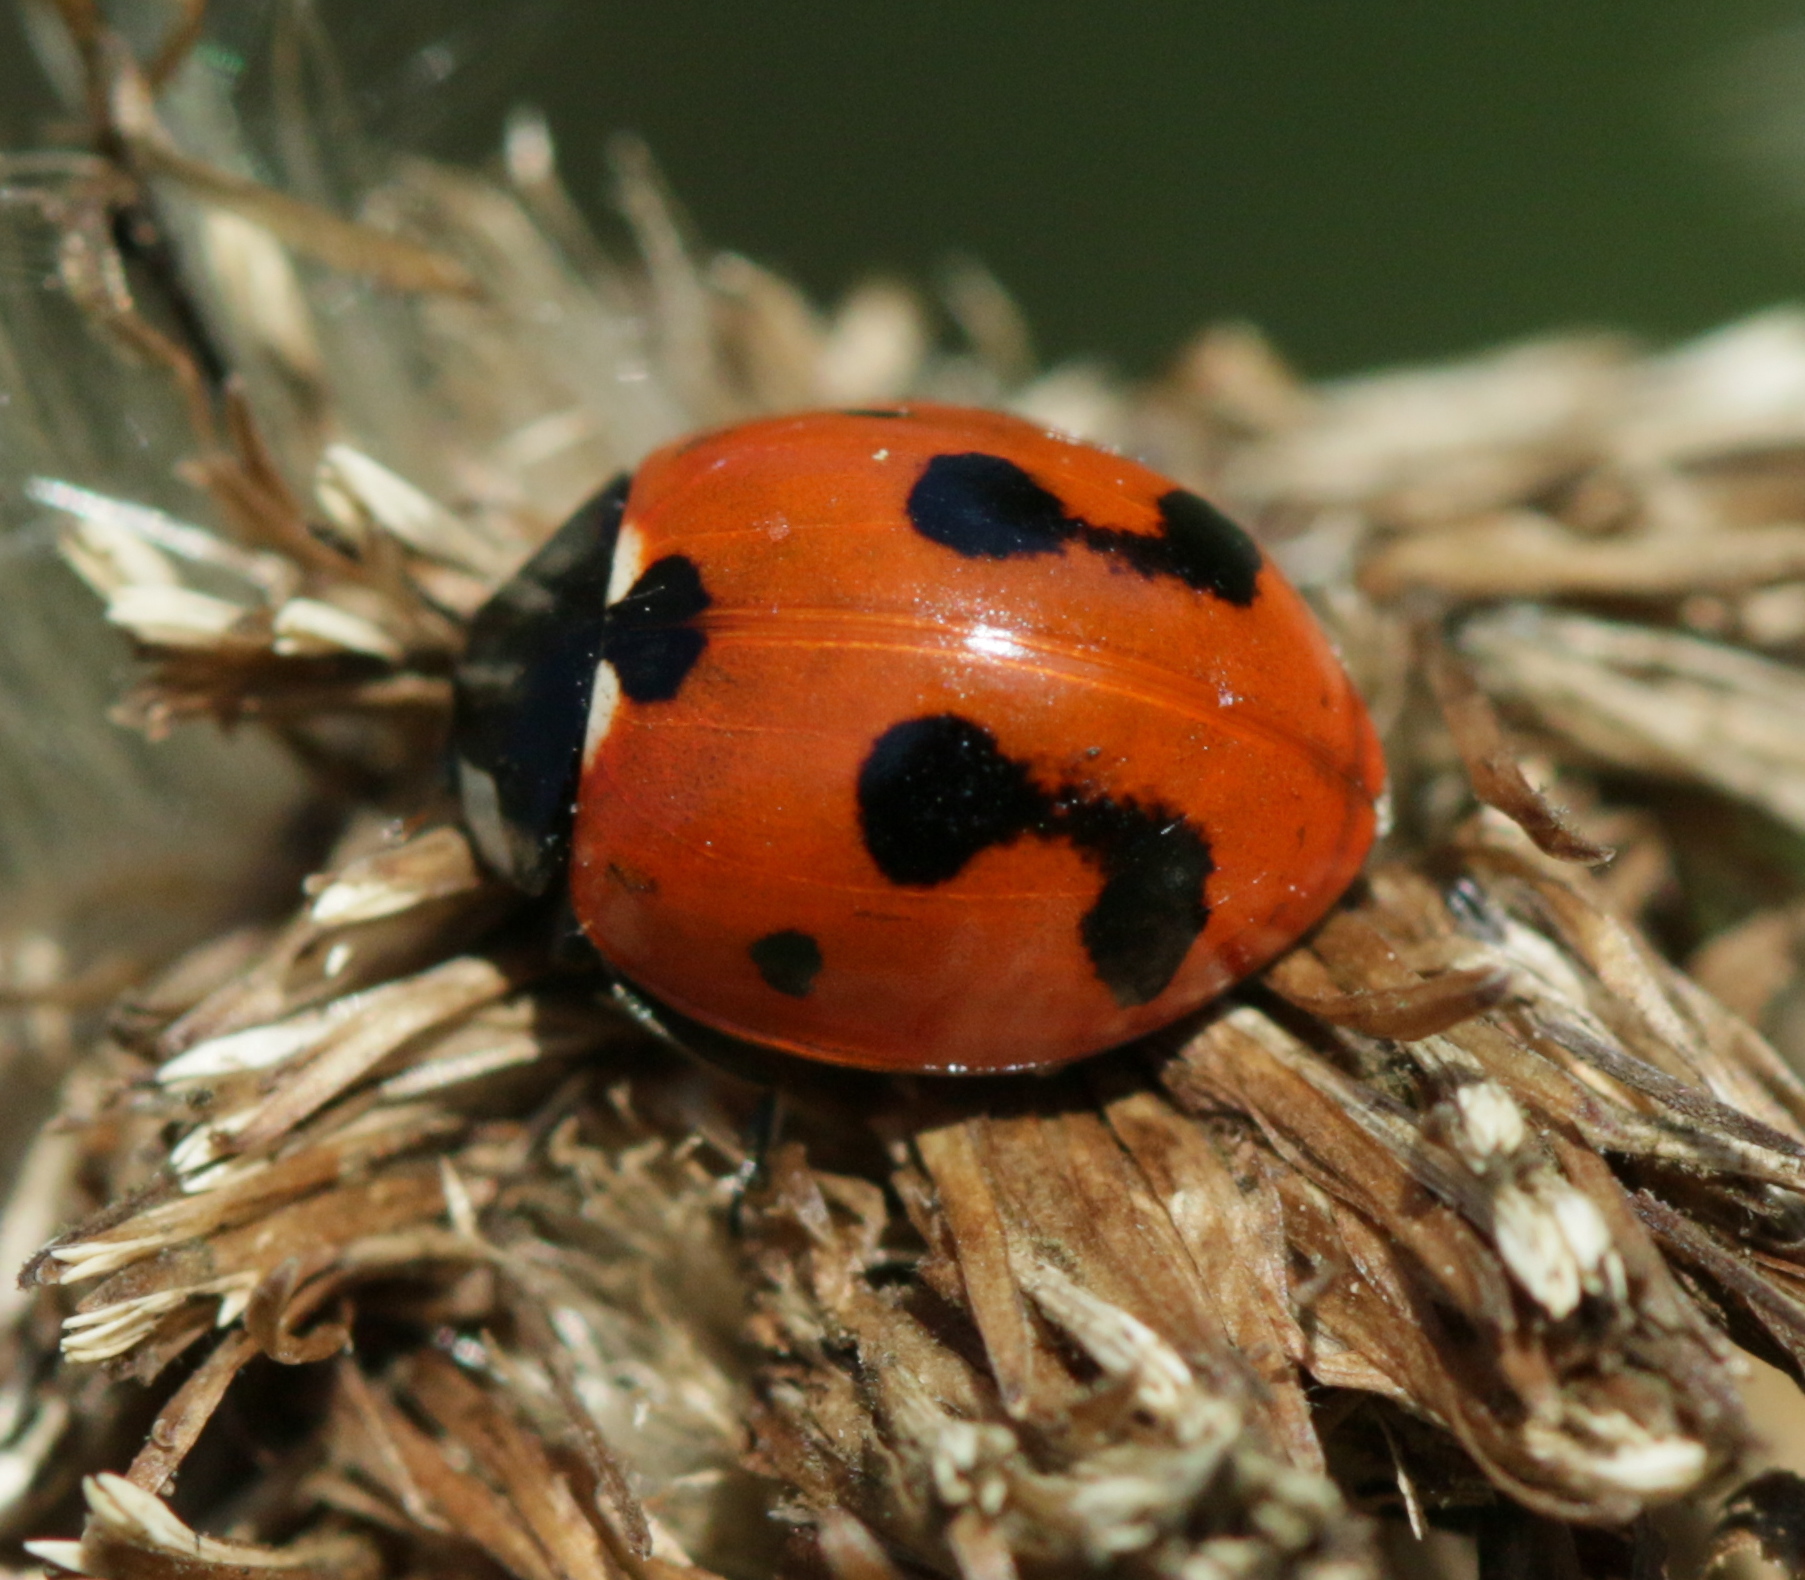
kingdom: Animalia
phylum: Arthropoda
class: Insecta
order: Coleoptera
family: Coccinellidae
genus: Coccinella
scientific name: Coccinella septempunctata
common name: Sevenspotted lady beetle
